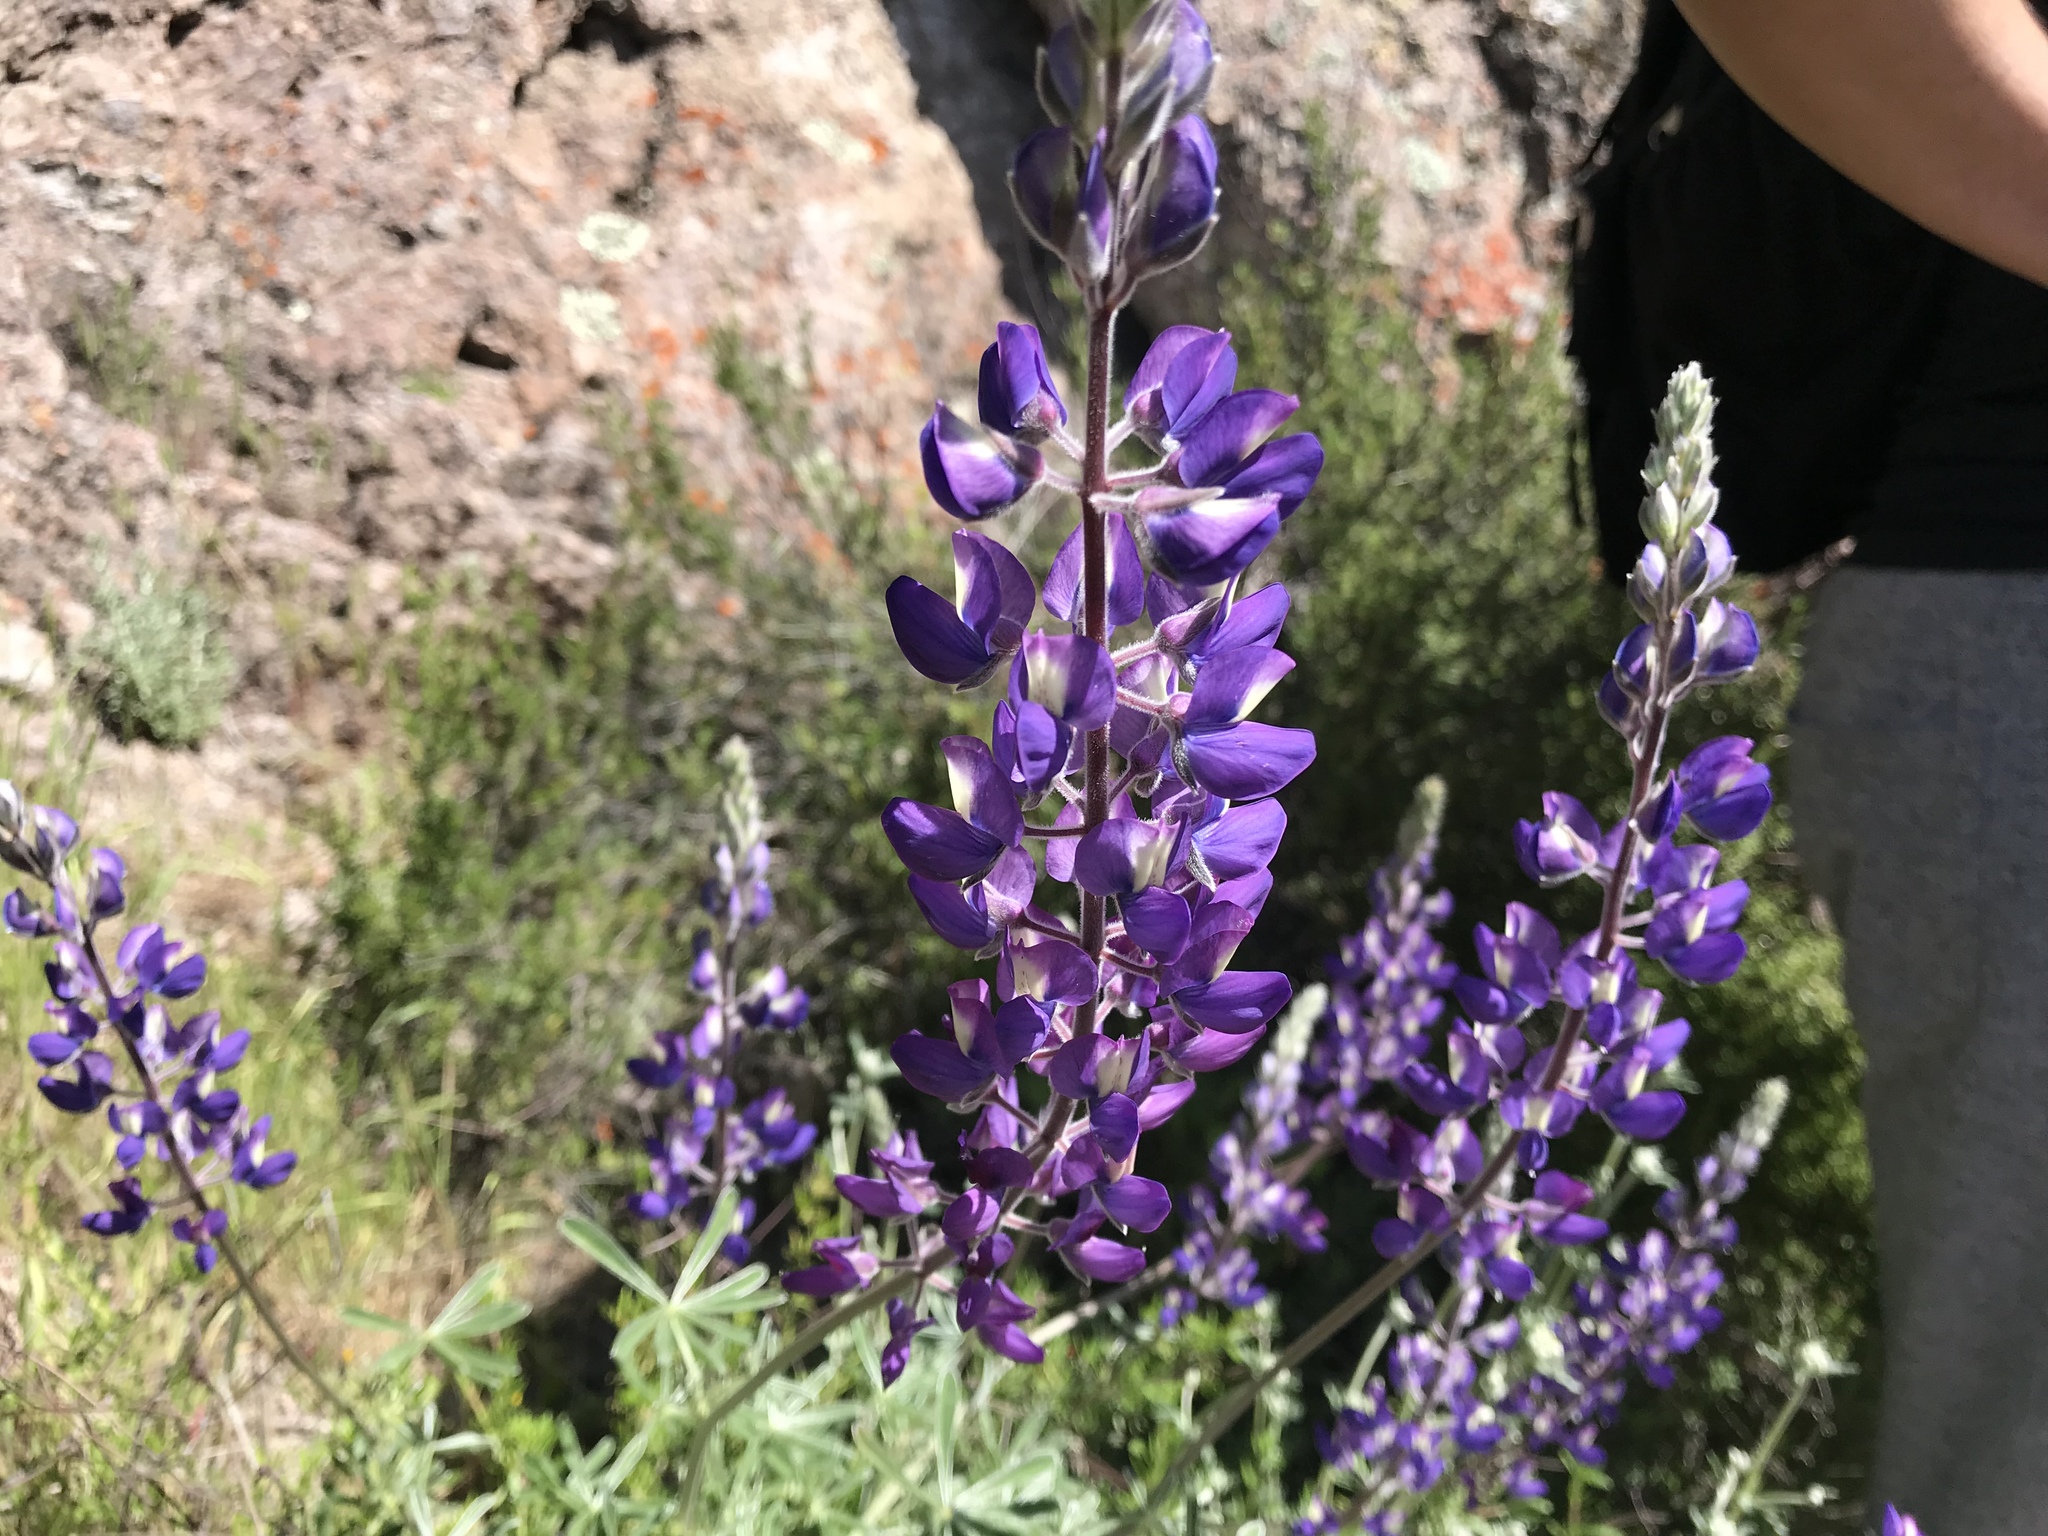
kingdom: Plantae
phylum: Tracheophyta
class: Magnoliopsida
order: Fabales
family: Fabaceae
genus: Lupinus
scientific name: Lupinus albifrons
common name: Foothill lupine
